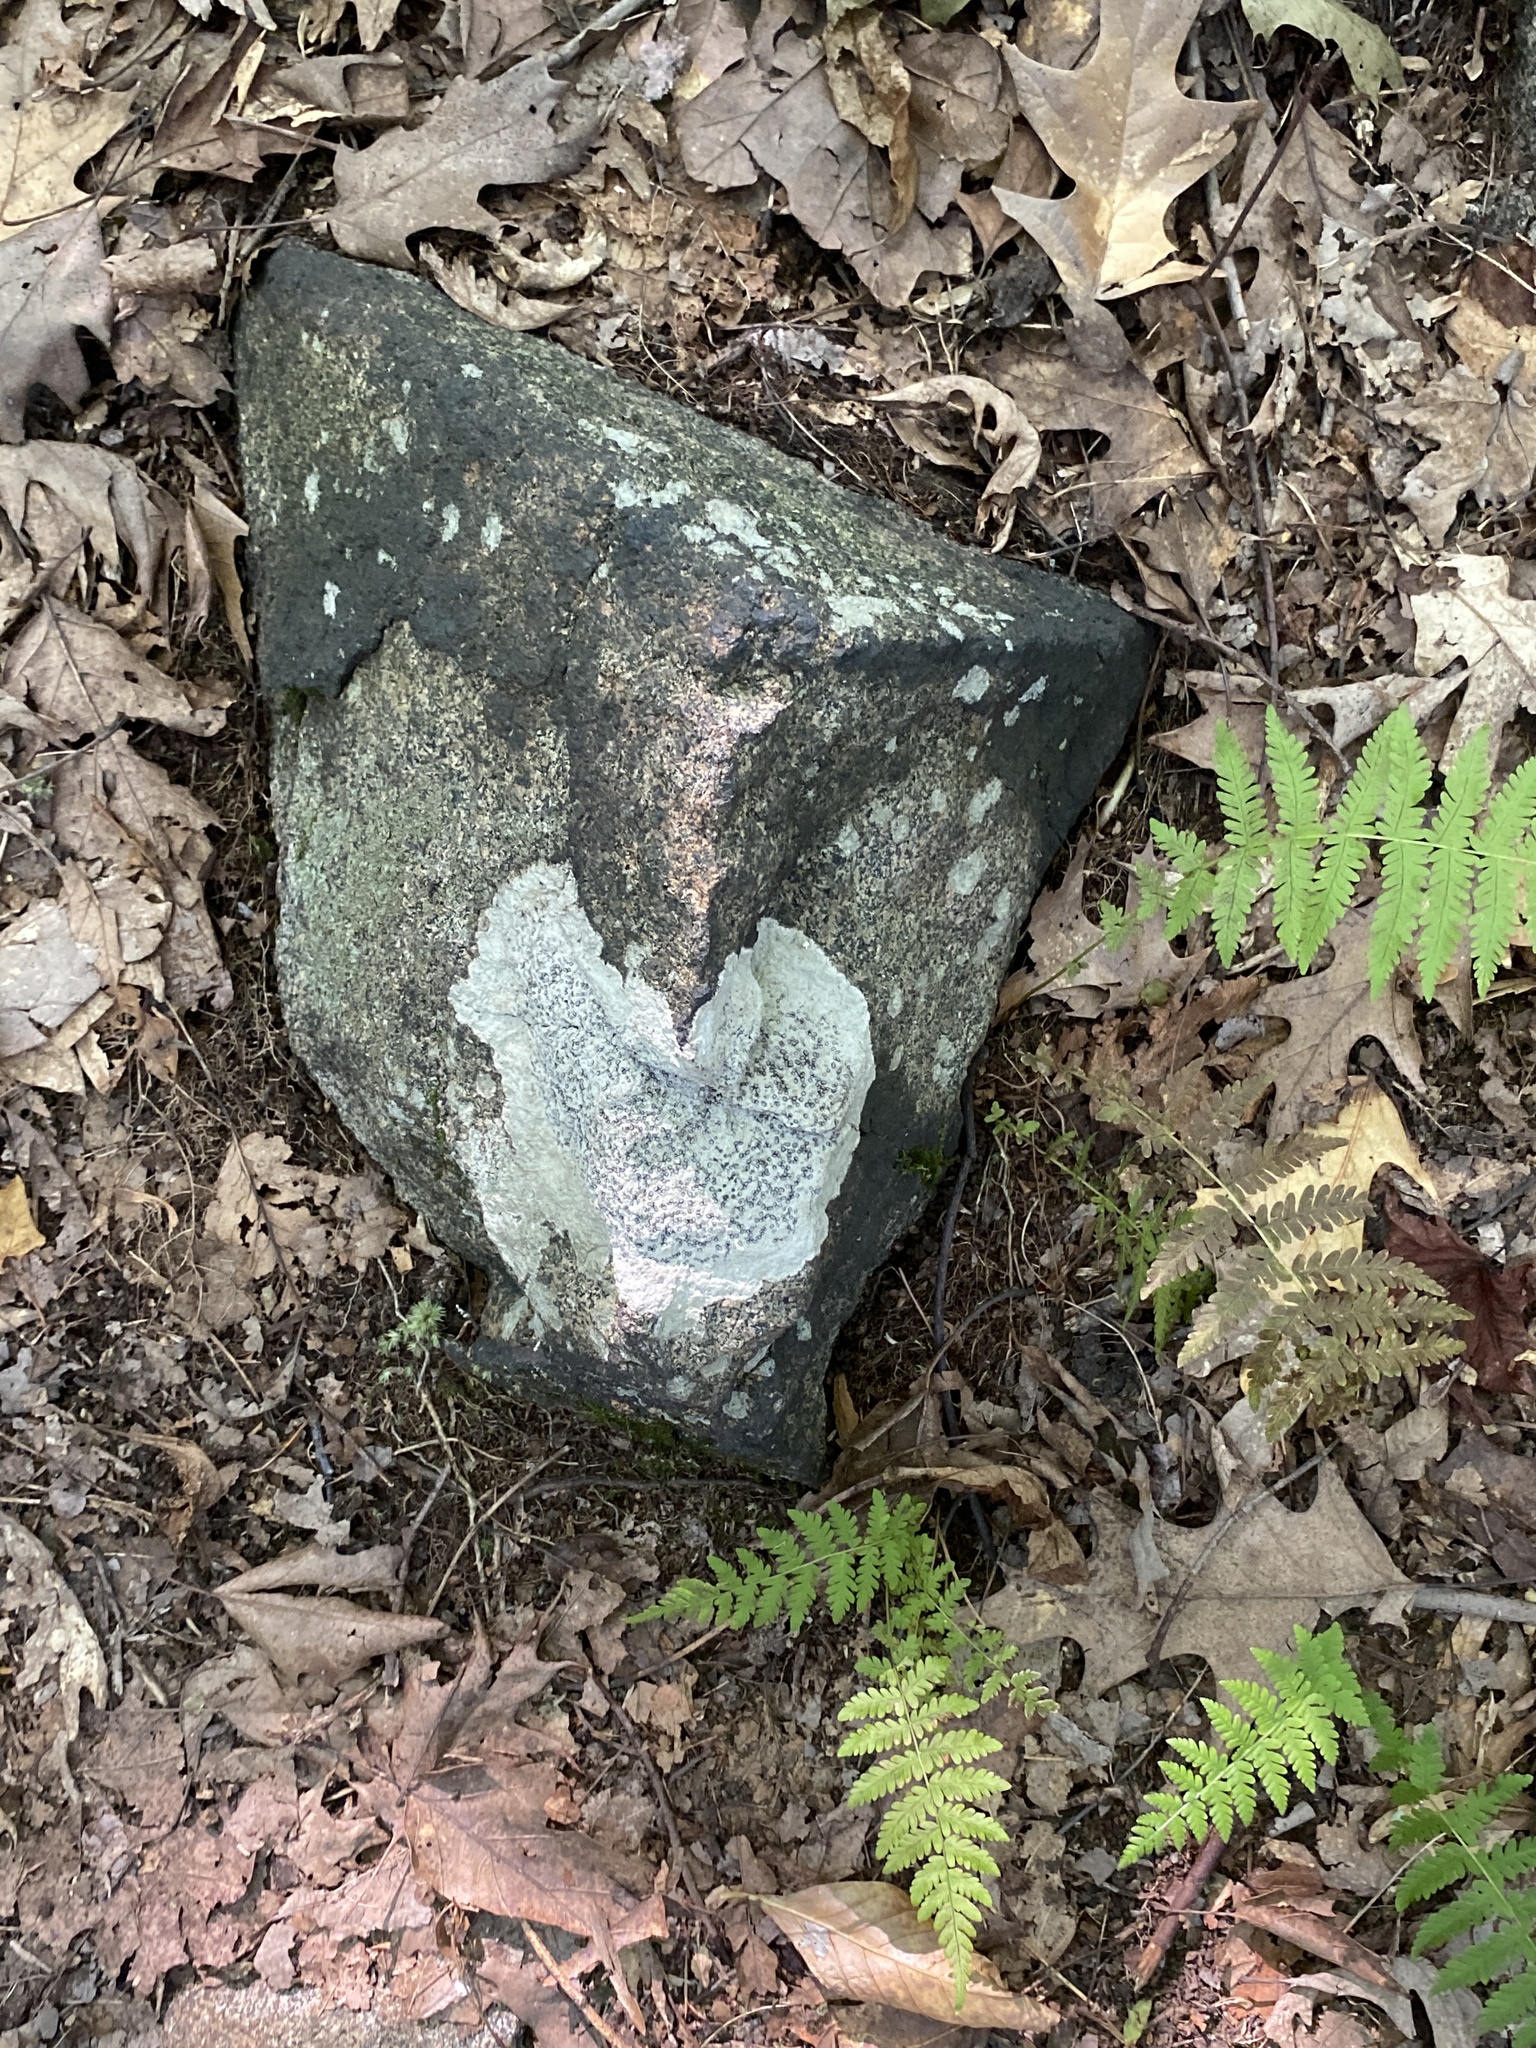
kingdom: Fungi
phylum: Ascomycota
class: Lecanoromycetes
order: Lecideales
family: Lecideaceae
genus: Porpidia
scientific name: Porpidia albocaerulescens
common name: Smokey-eyed boulder lichen
